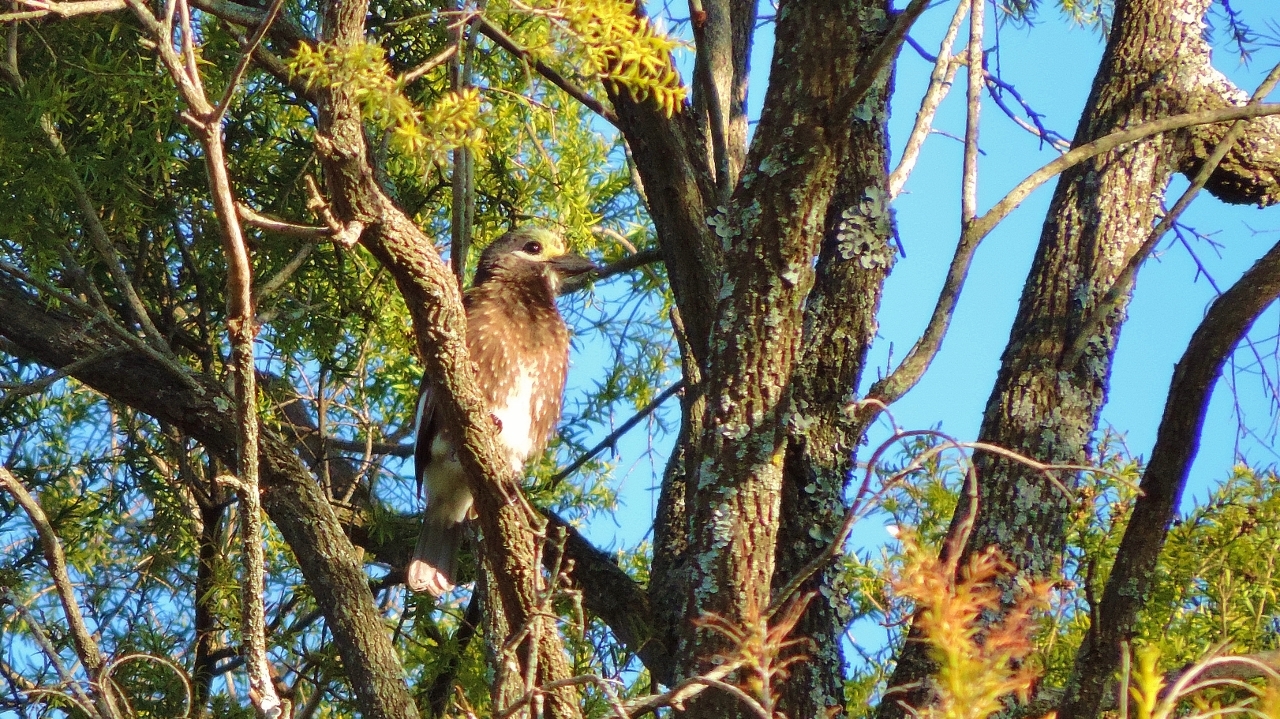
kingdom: Animalia
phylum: Chordata
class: Aves
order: Piciformes
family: Lybiidae
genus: Stactolaema
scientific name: Stactolaema whytii
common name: Whyte's barbet
